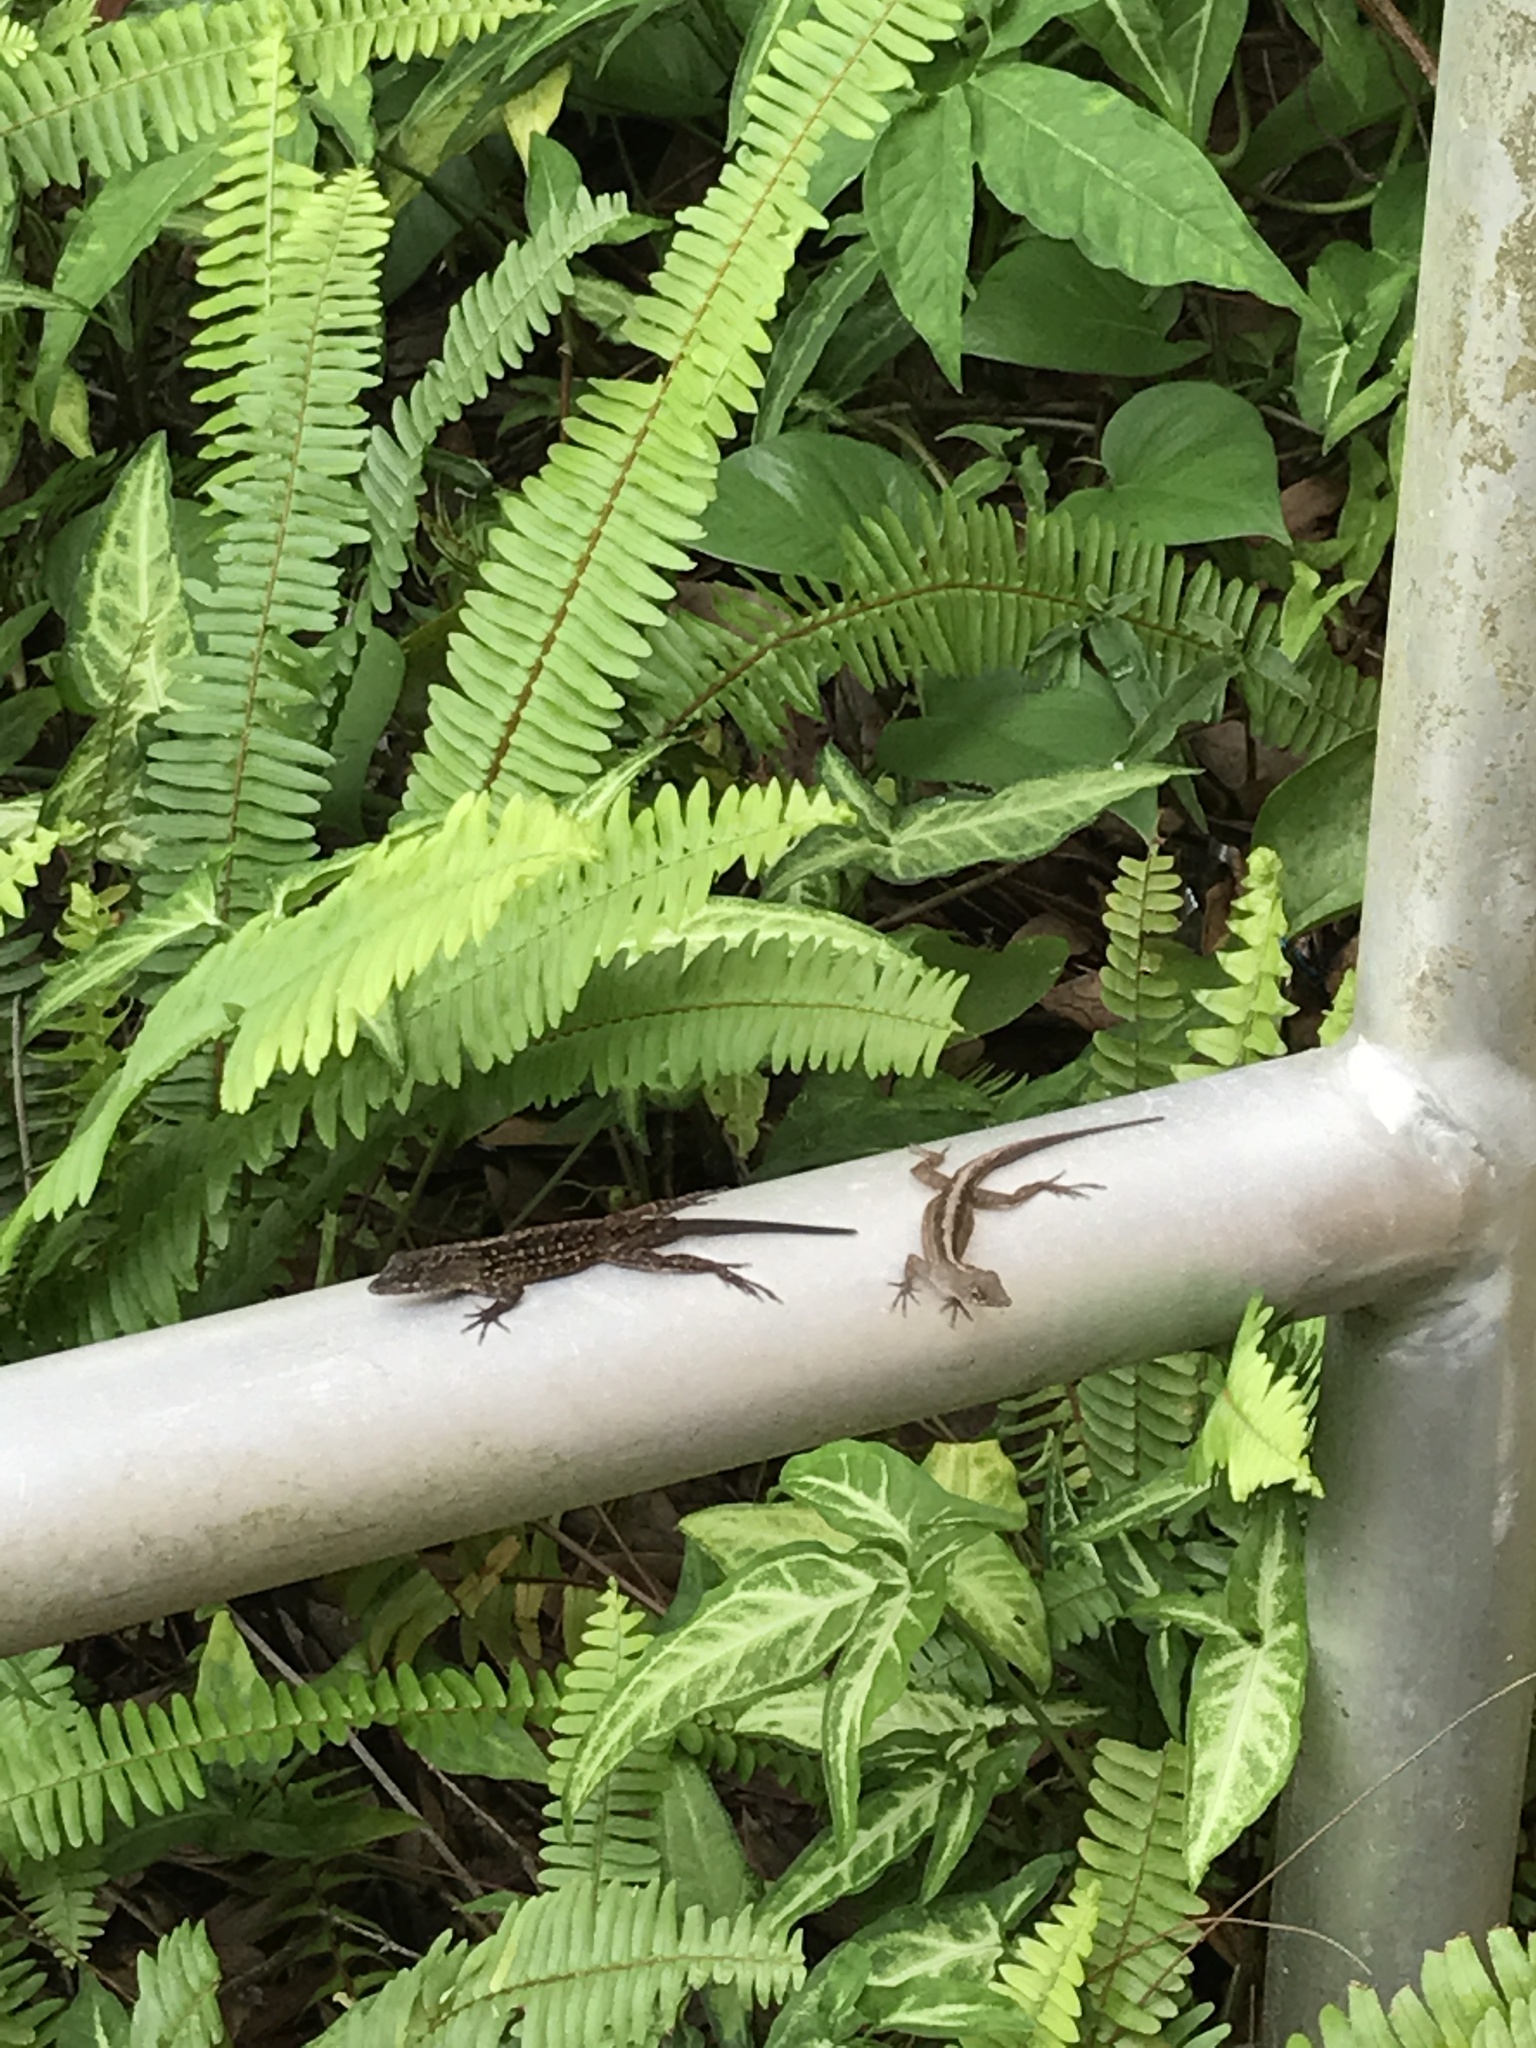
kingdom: Animalia
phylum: Chordata
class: Squamata
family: Dactyloidae
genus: Anolis
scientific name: Anolis sagrei
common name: Brown anole
